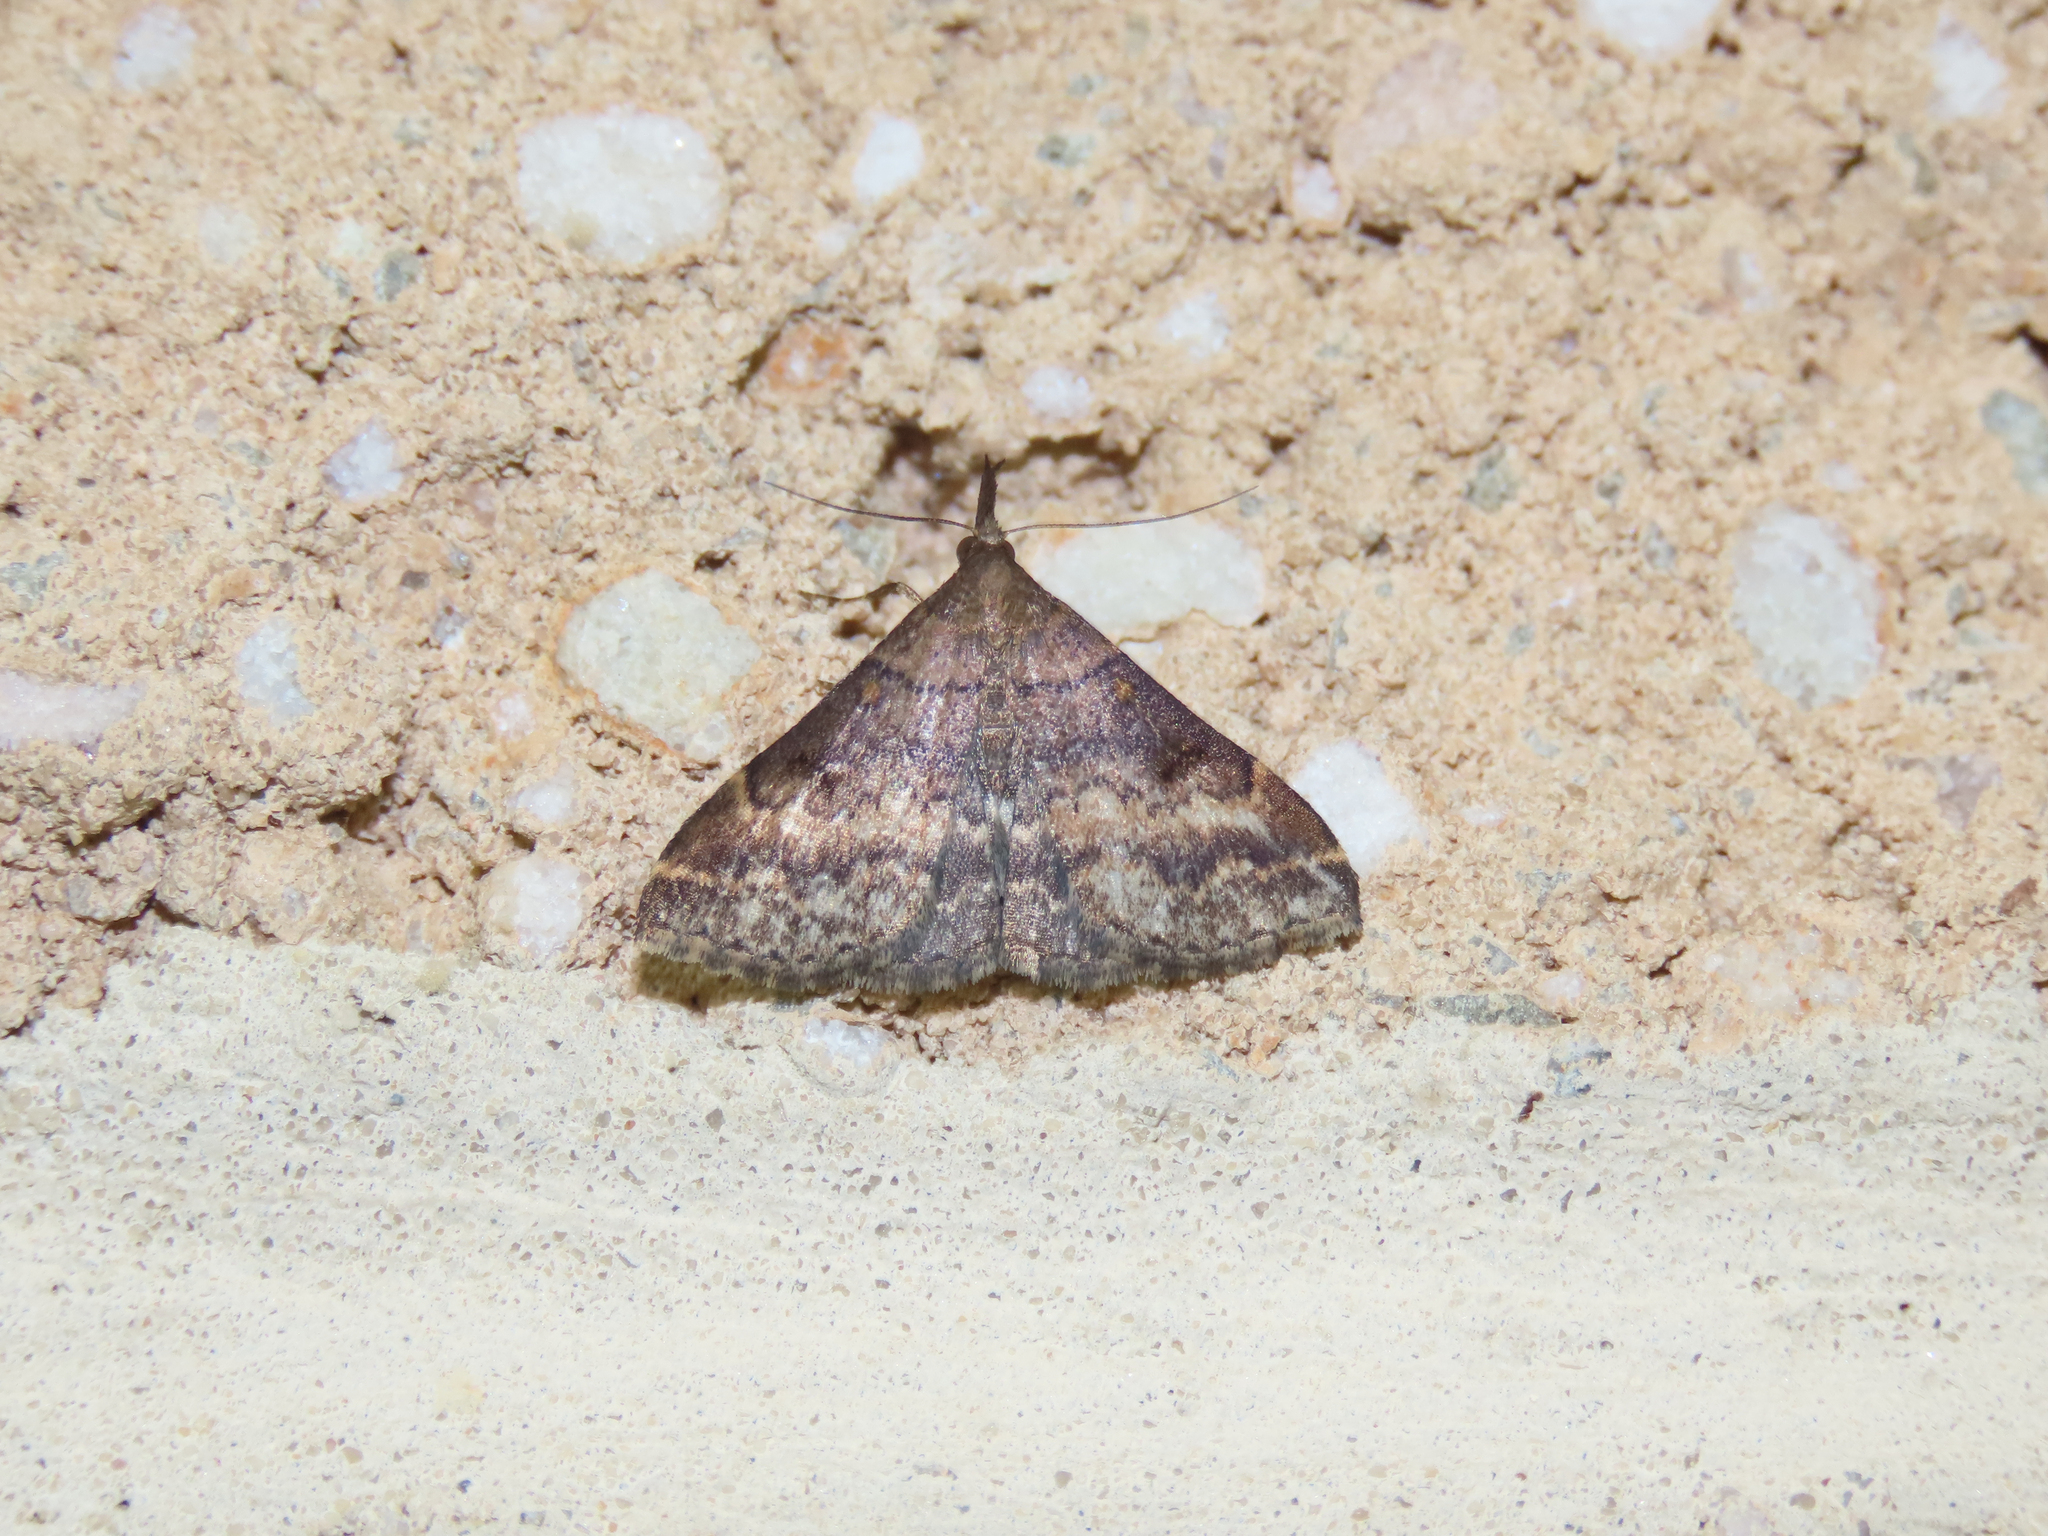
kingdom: Animalia
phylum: Arthropoda
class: Insecta
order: Lepidoptera
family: Erebidae
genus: Renia
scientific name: Renia factiosalis
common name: Sociable renia moth
